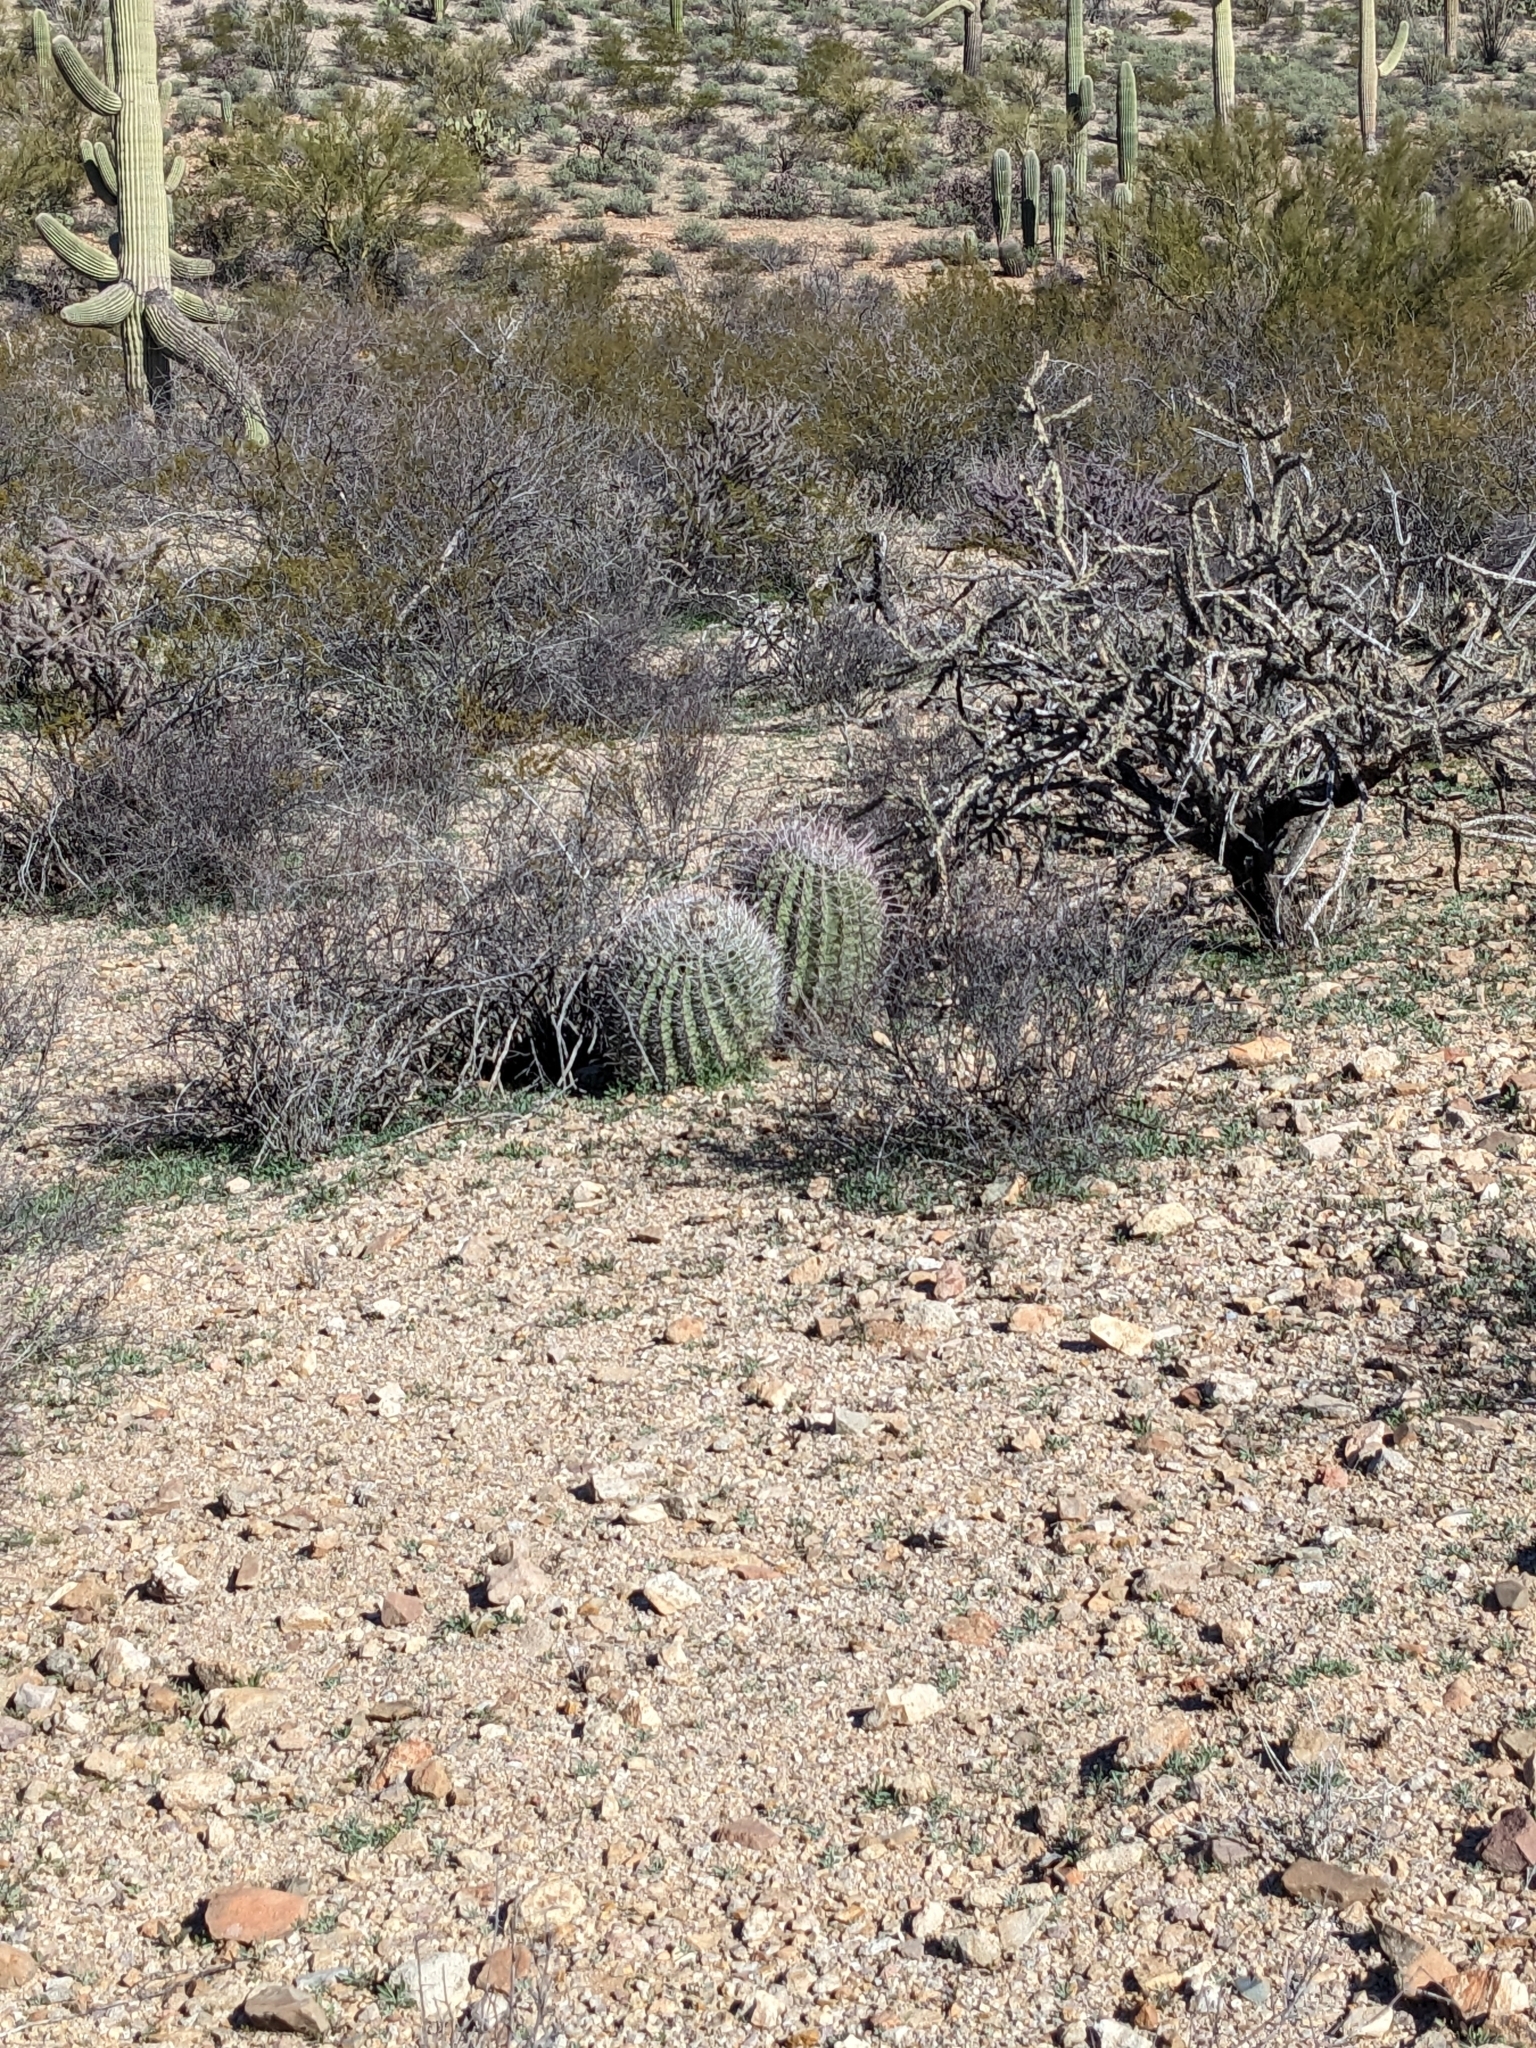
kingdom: Plantae
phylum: Tracheophyta
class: Magnoliopsida
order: Caryophyllales
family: Cactaceae
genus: Ferocactus
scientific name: Ferocactus wislizeni
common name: Candy barrel cactus
